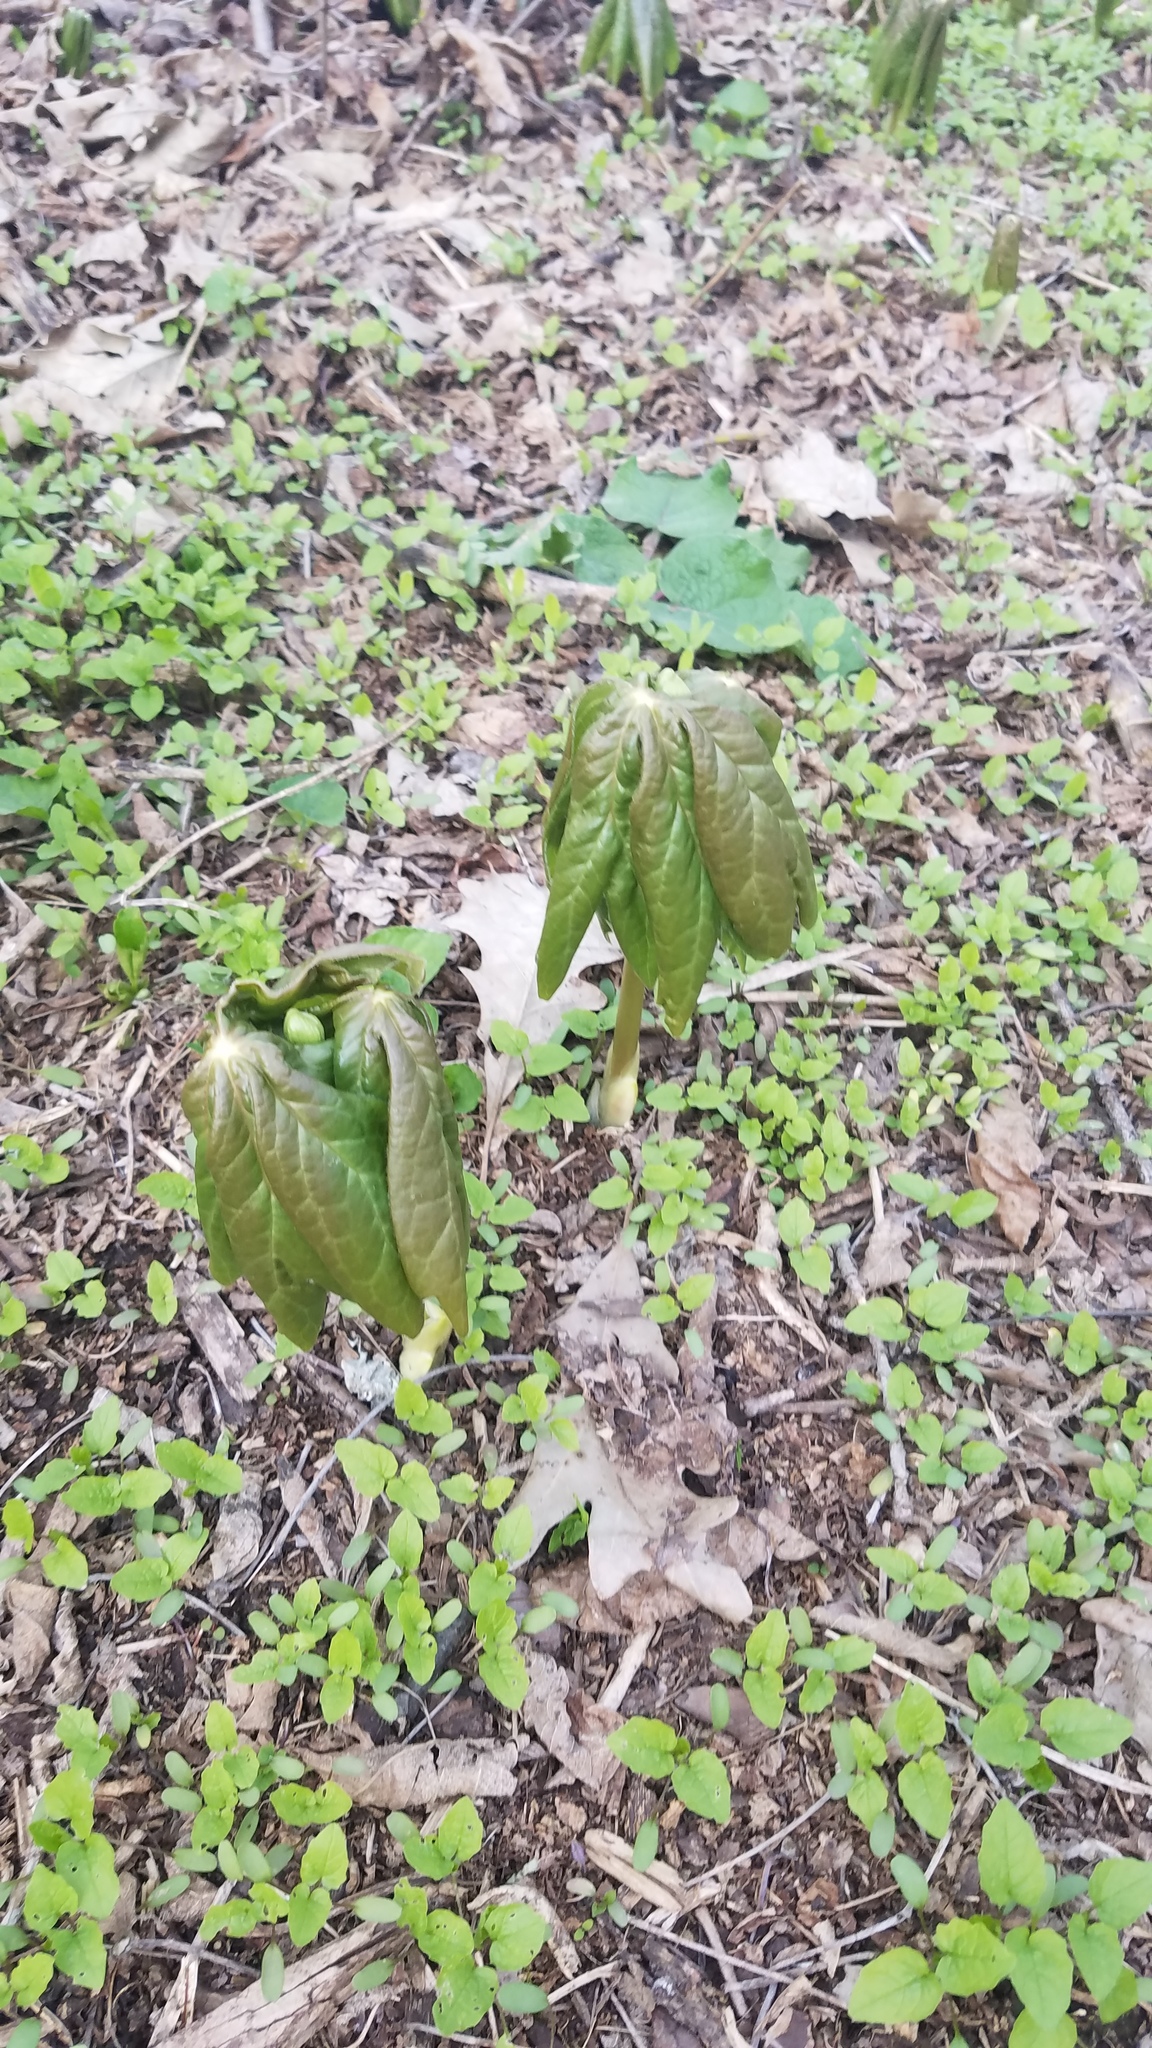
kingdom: Plantae
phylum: Tracheophyta
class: Magnoliopsida
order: Ranunculales
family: Berberidaceae
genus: Podophyllum
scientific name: Podophyllum peltatum
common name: Wild mandrake
